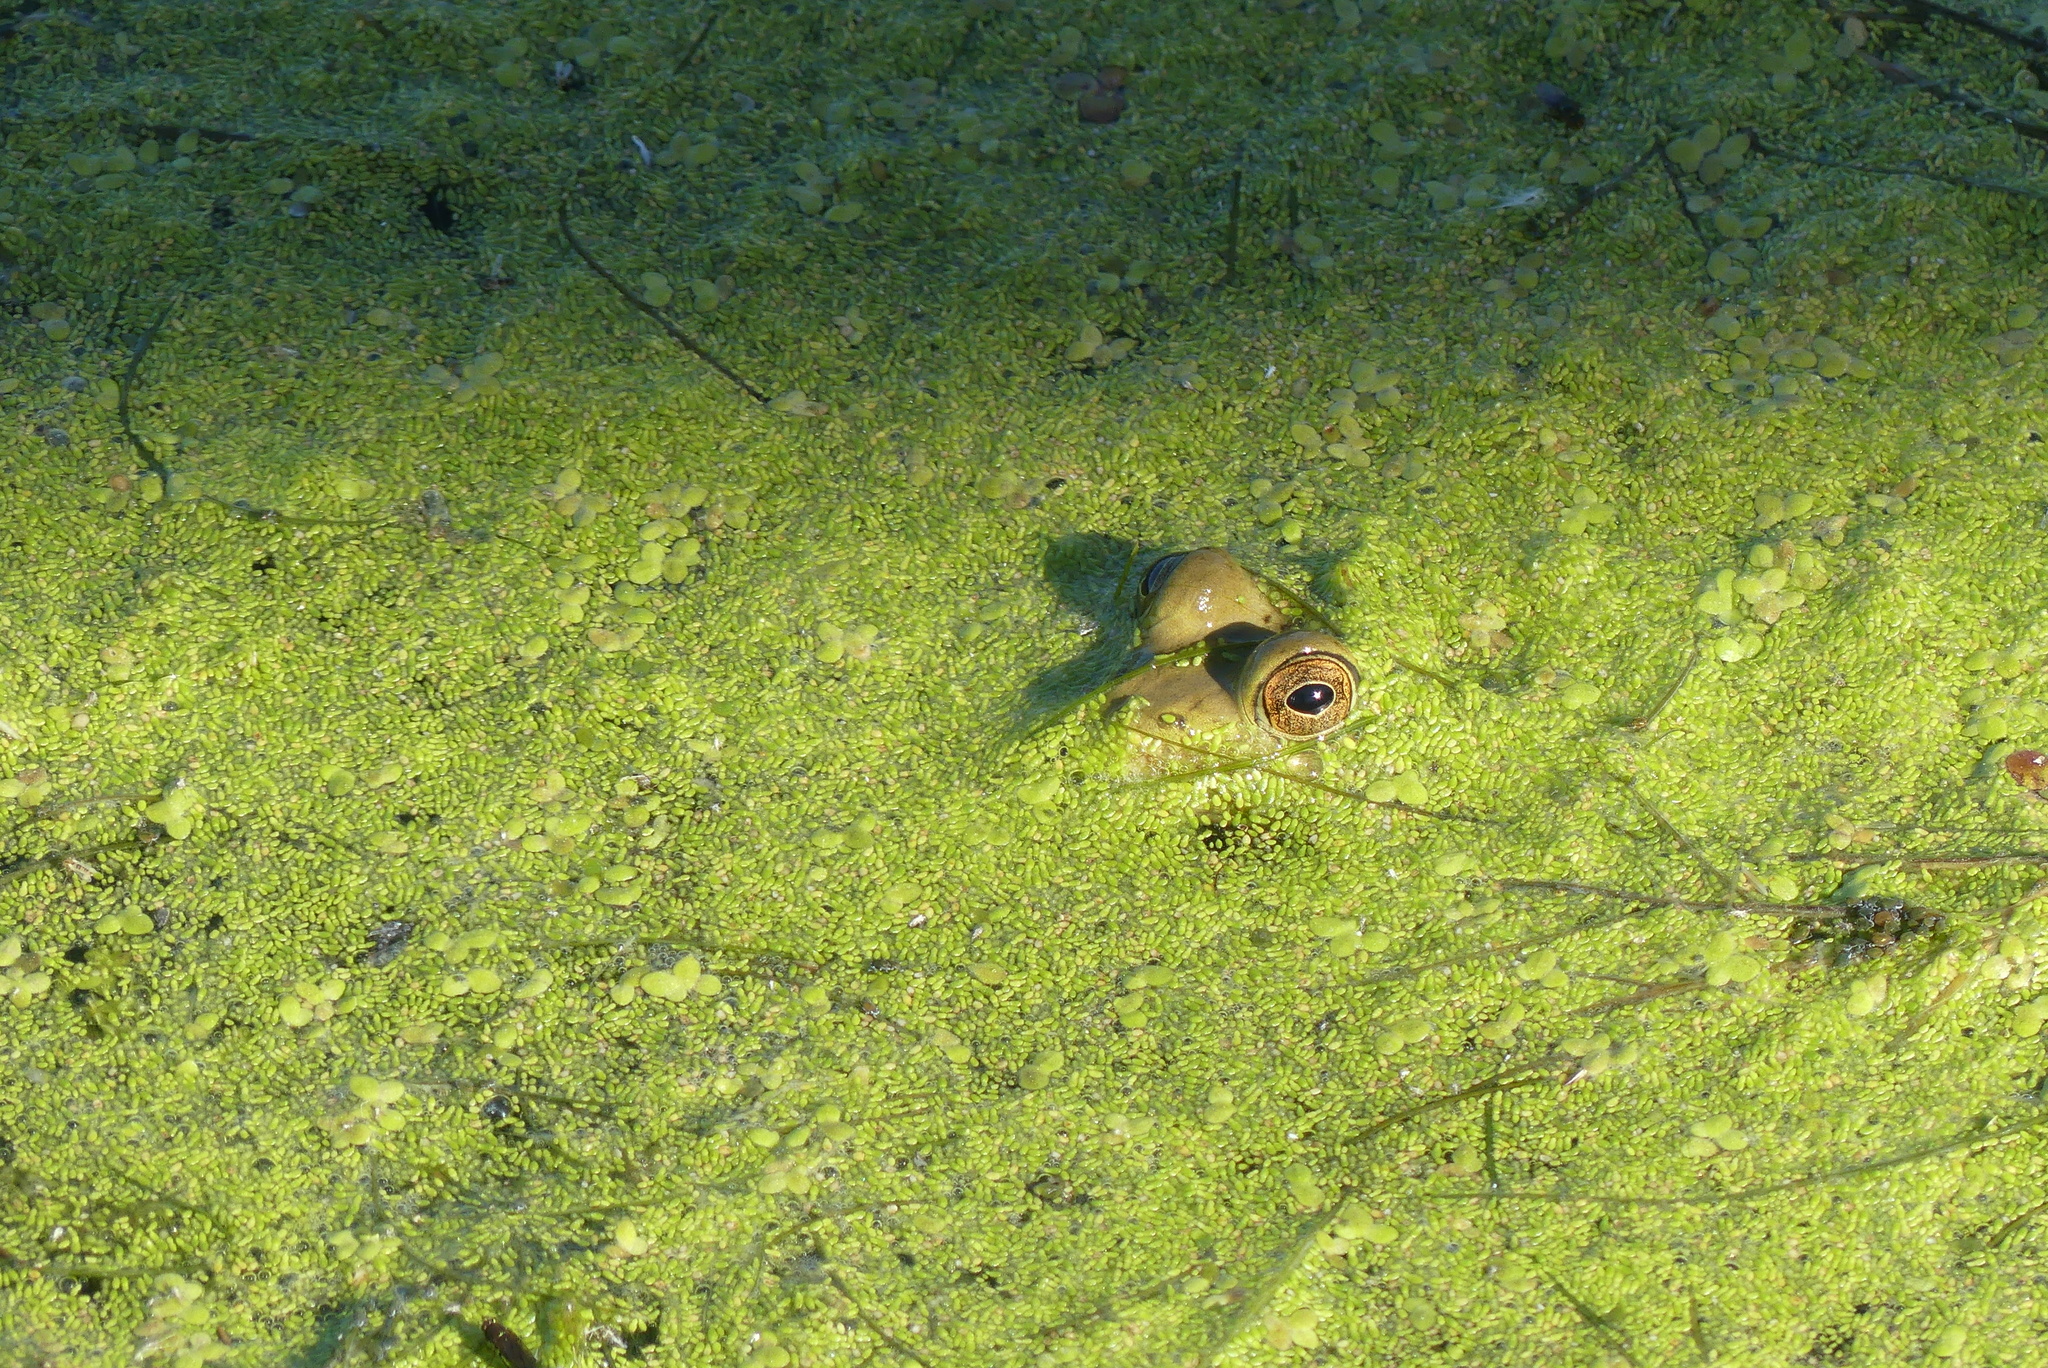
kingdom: Animalia
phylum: Chordata
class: Amphibia
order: Anura
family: Ranidae
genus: Lithobates
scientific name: Lithobates catesbeianus
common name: American bullfrog
